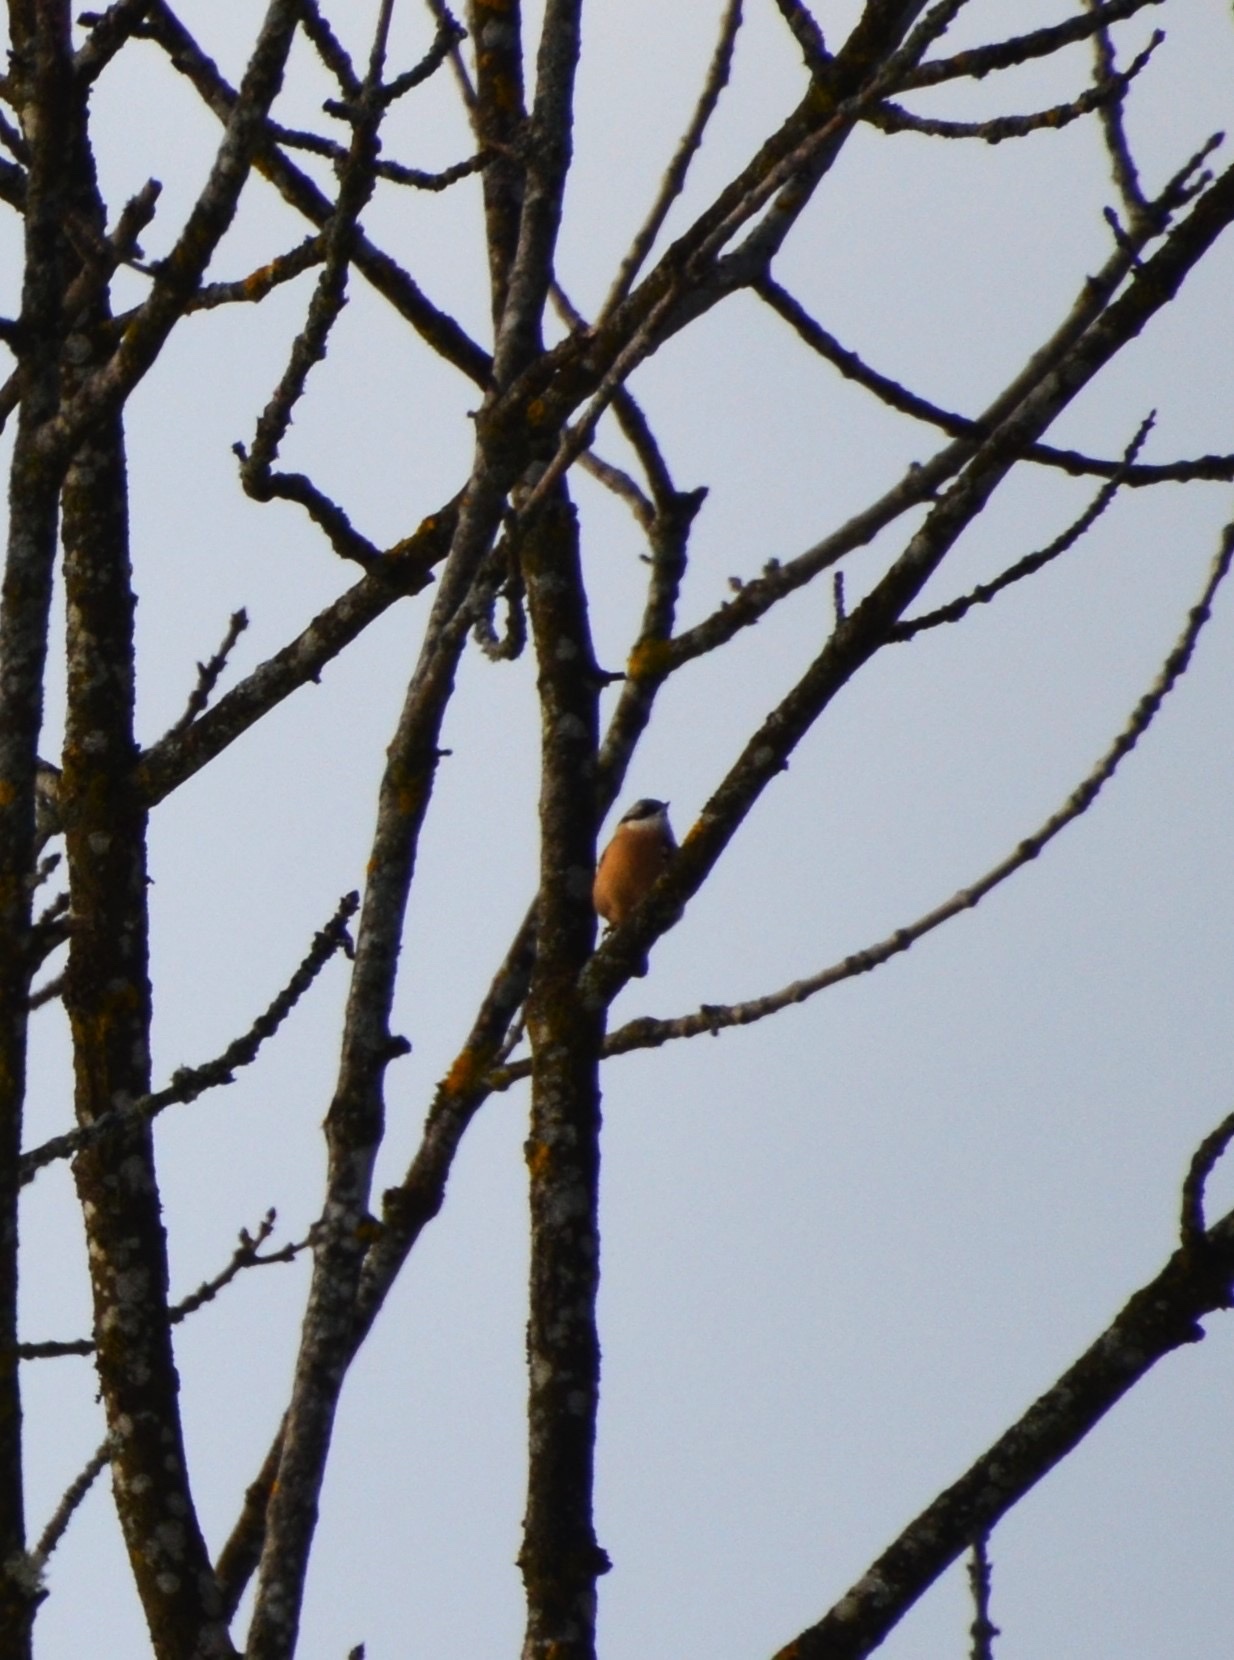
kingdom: Animalia
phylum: Chordata
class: Aves
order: Passeriformes
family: Sittidae
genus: Sitta
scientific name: Sitta europaea
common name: Eurasian nuthatch
